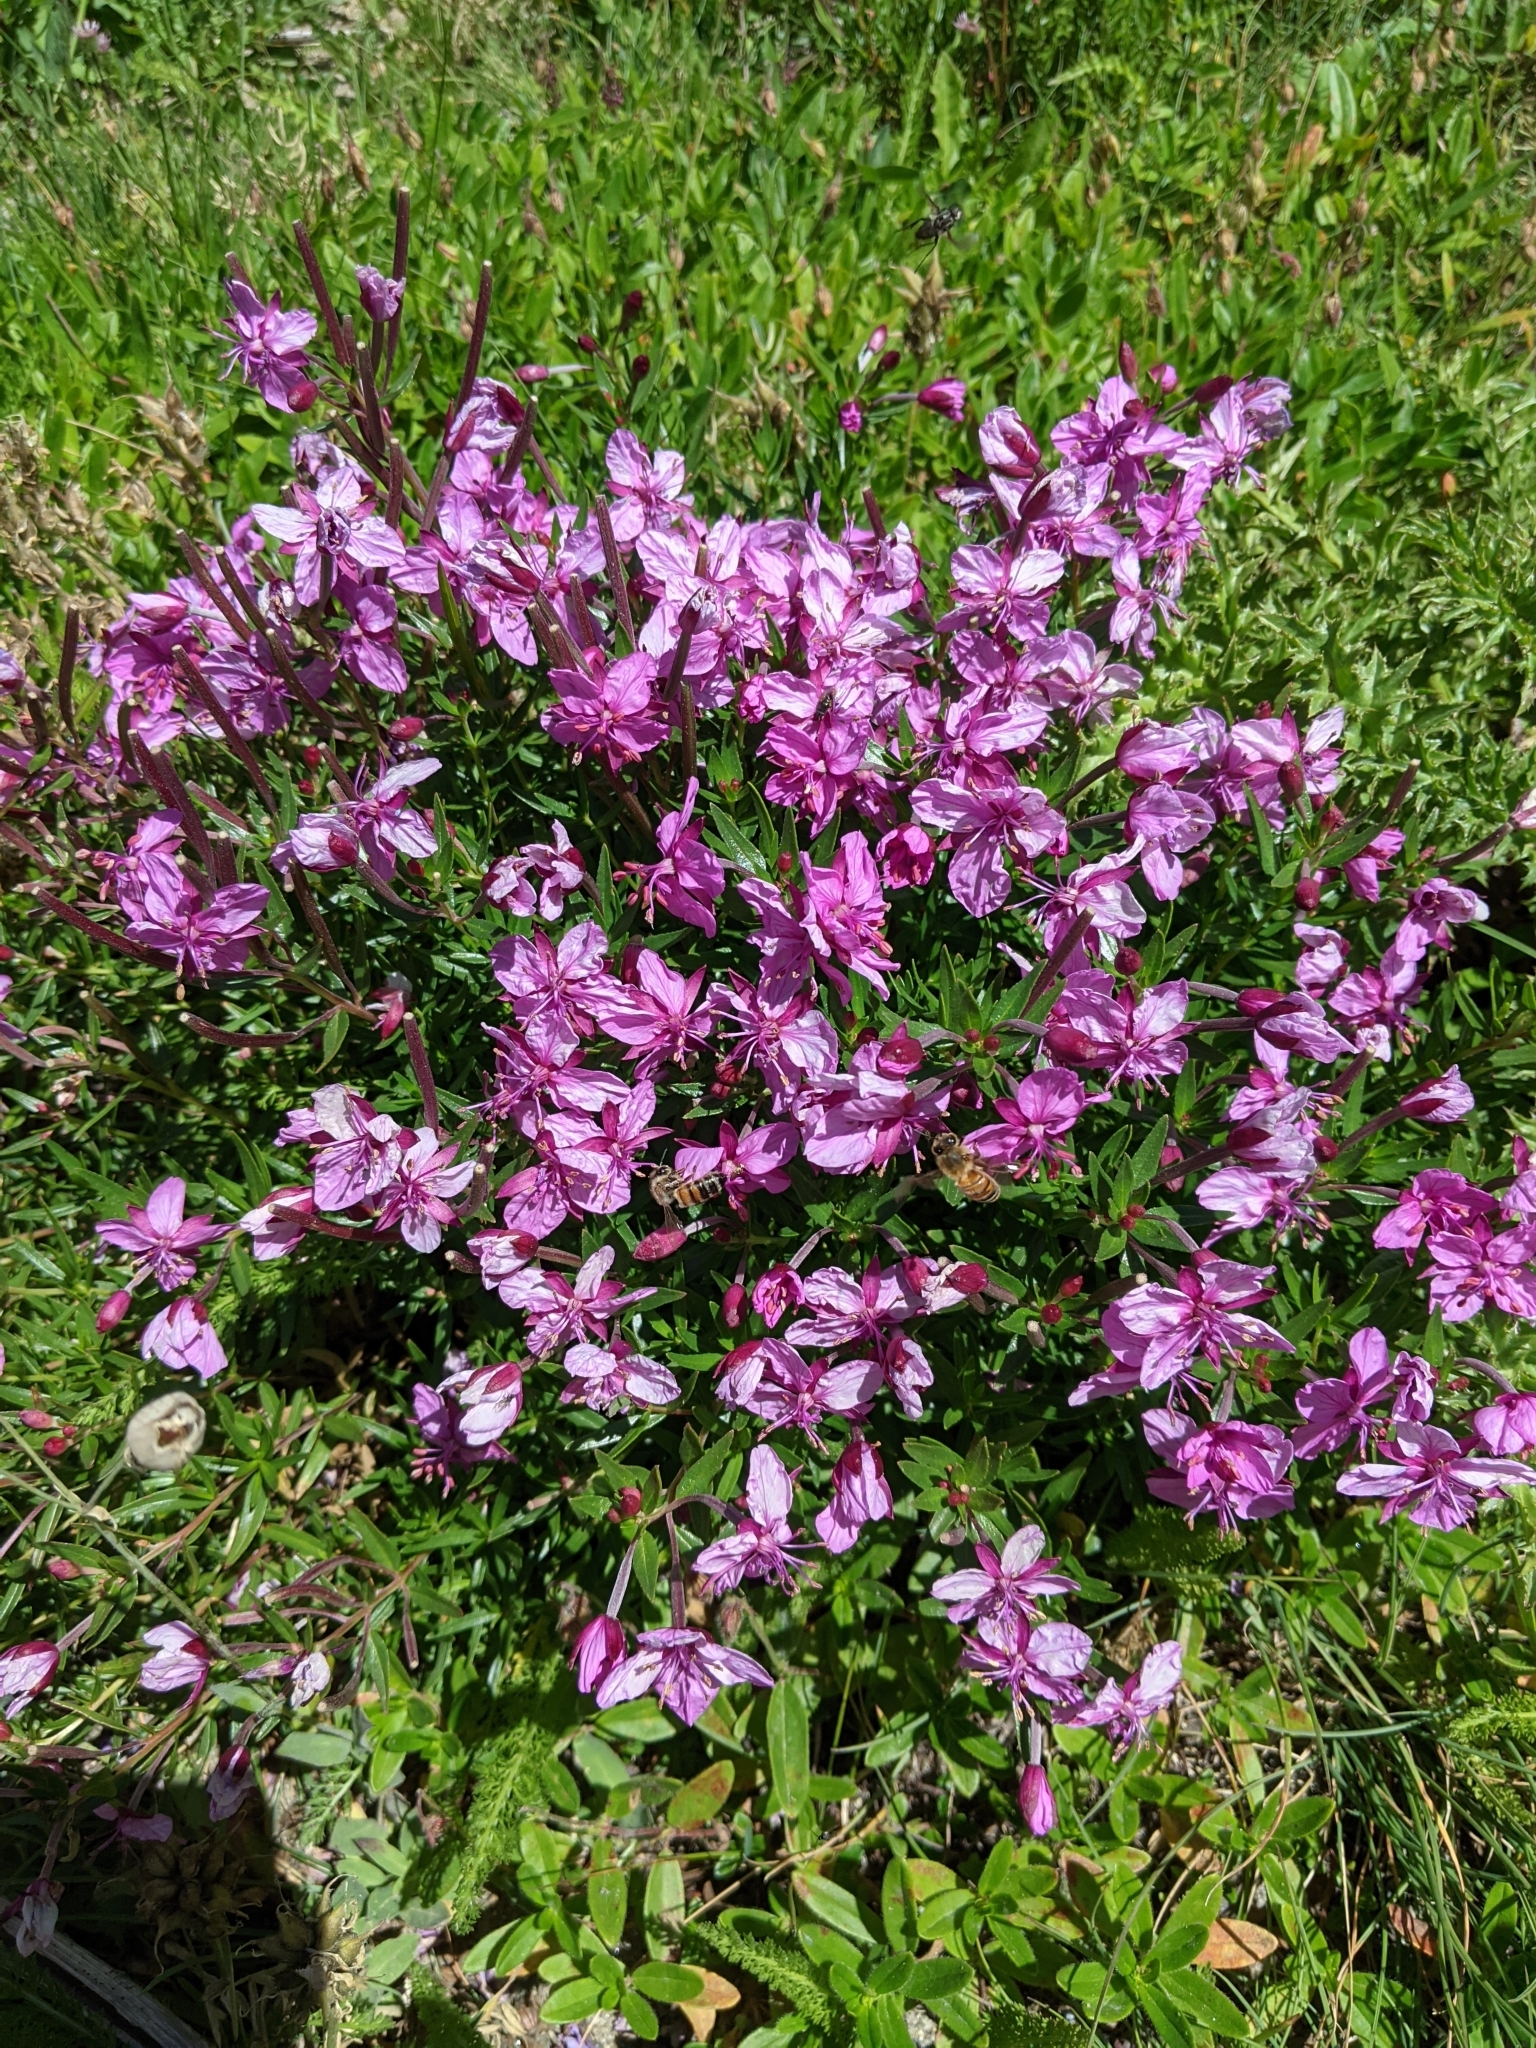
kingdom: Plantae
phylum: Tracheophyta
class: Magnoliopsida
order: Myrtales
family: Onagraceae
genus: Chamaenerion
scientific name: Chamaenerion fleischeri
